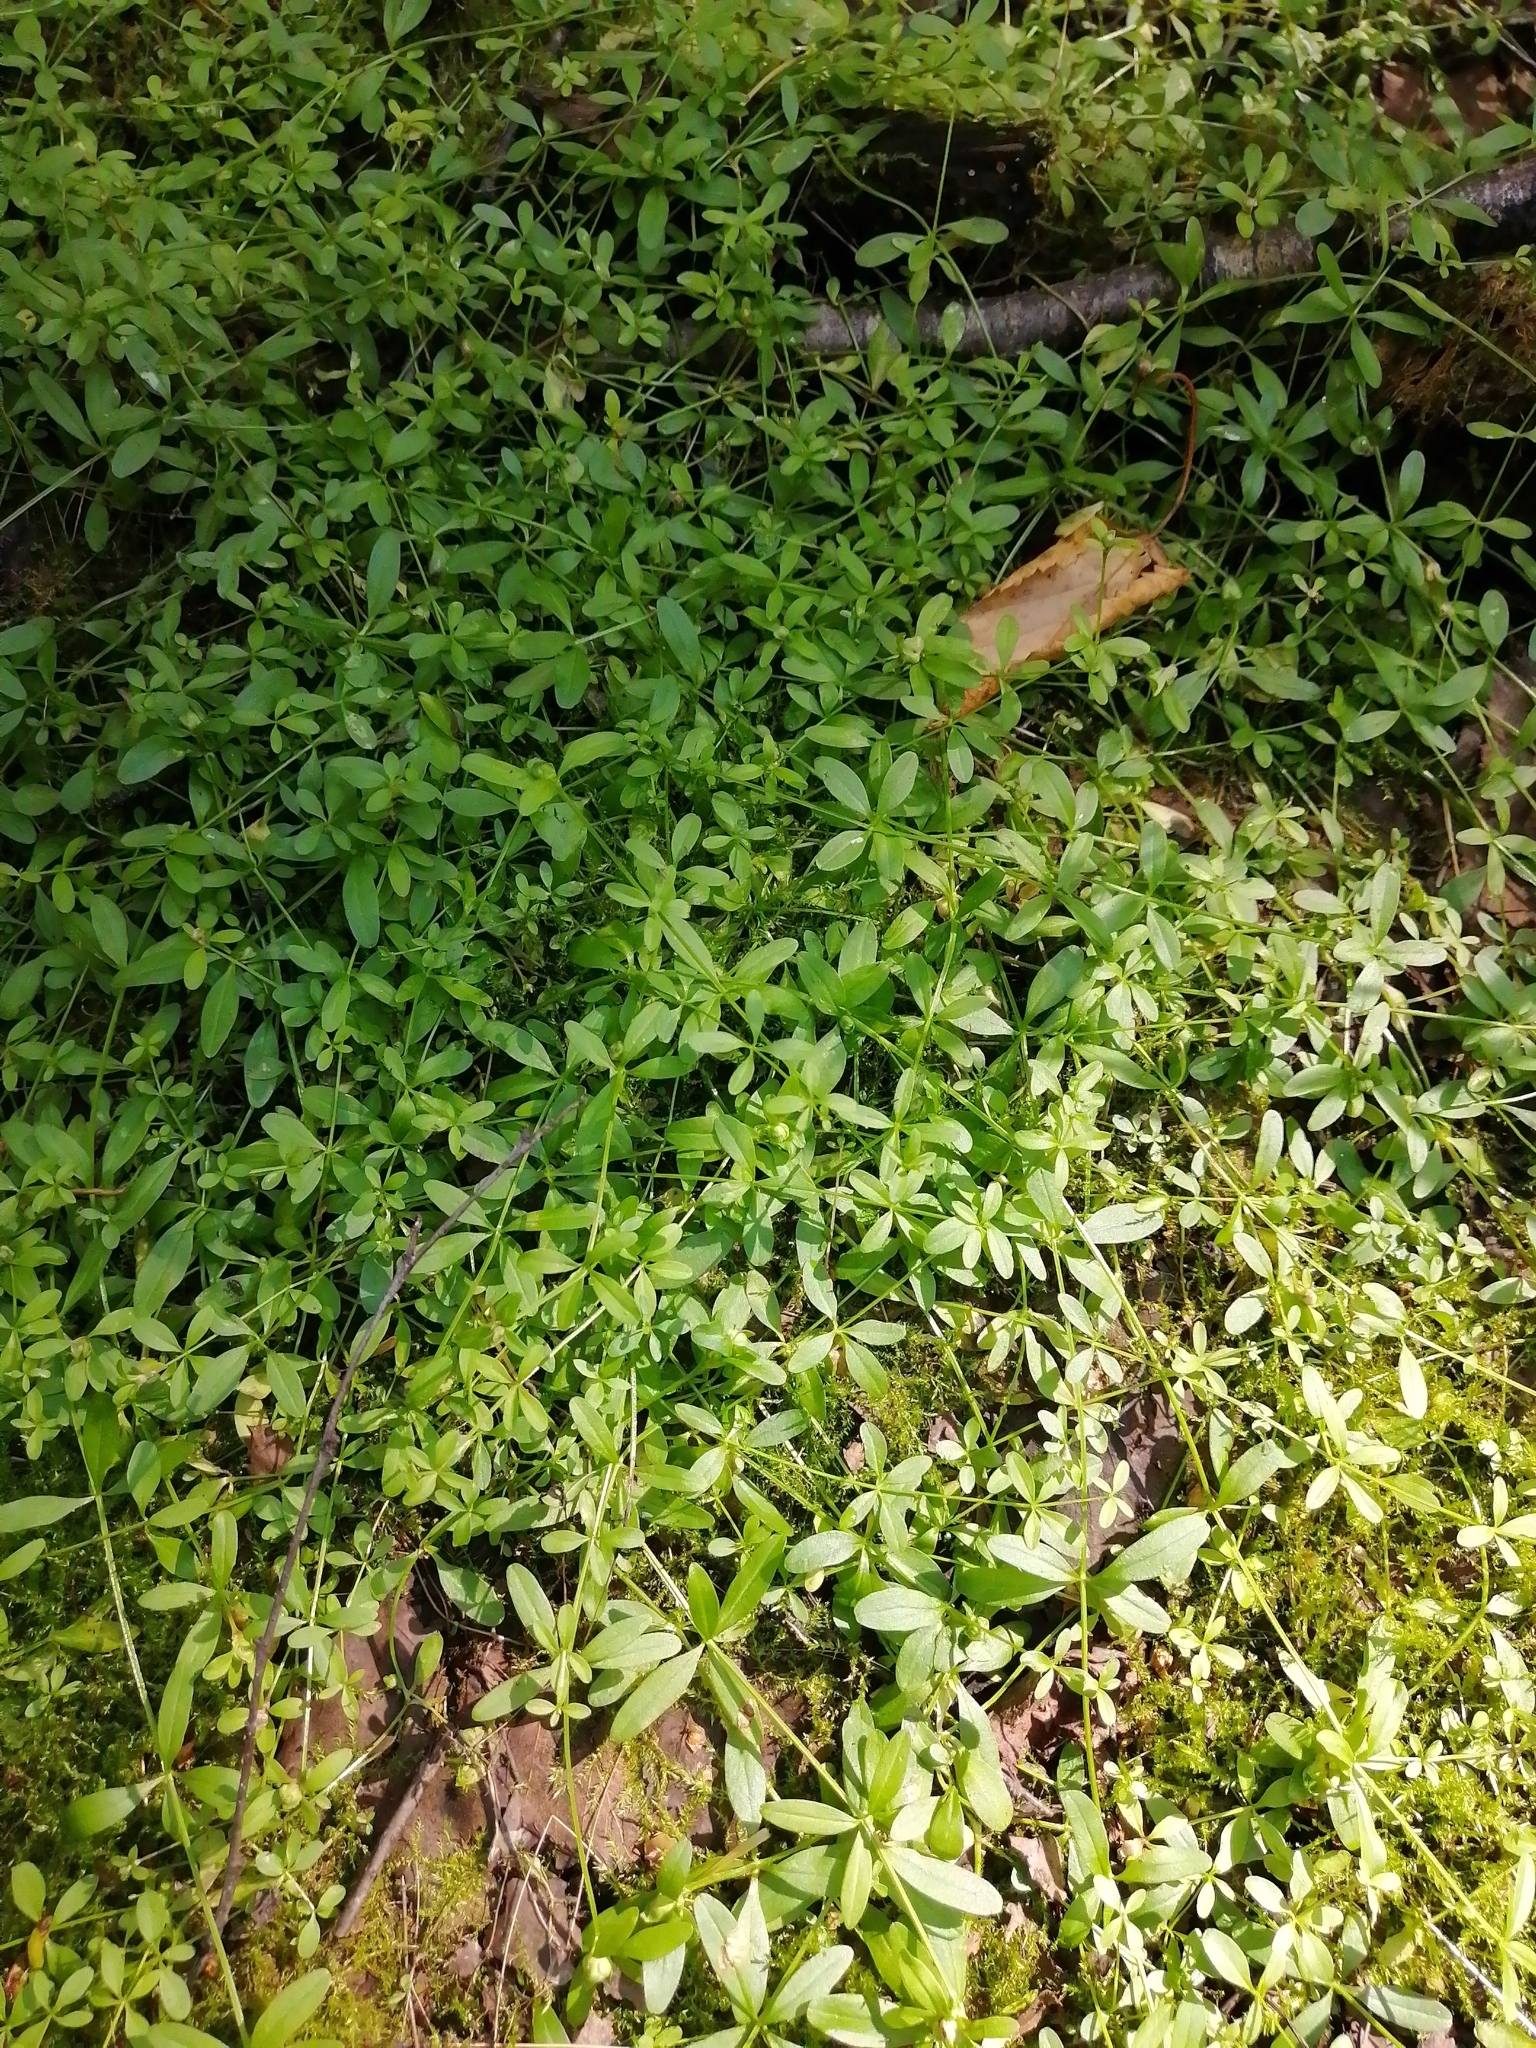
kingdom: Plantae
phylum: Tracheophyta
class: Magnoliopsida
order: Gentianales
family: Rubiaceae
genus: Galium
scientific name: Galium palustre
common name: Common marsh-bedstraw
